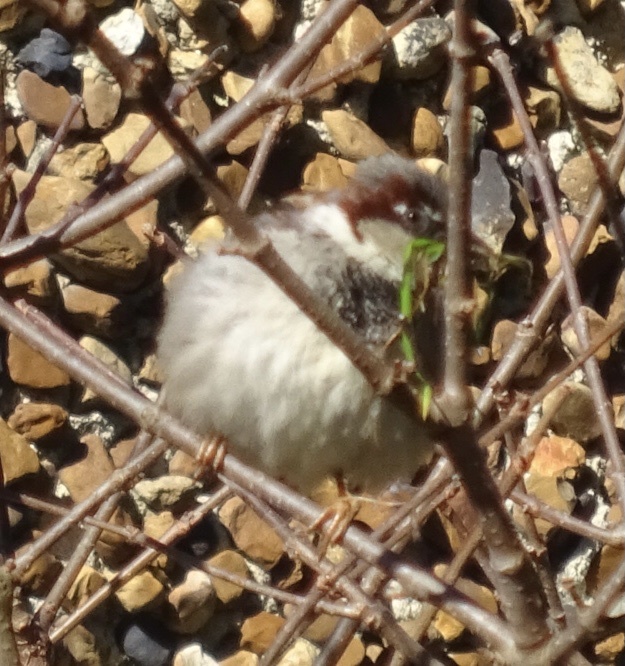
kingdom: Animalia
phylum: Chordata
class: Aves
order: Passeriformes
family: Passeridae
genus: Passer
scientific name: Passer domesticus
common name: House sparrow
